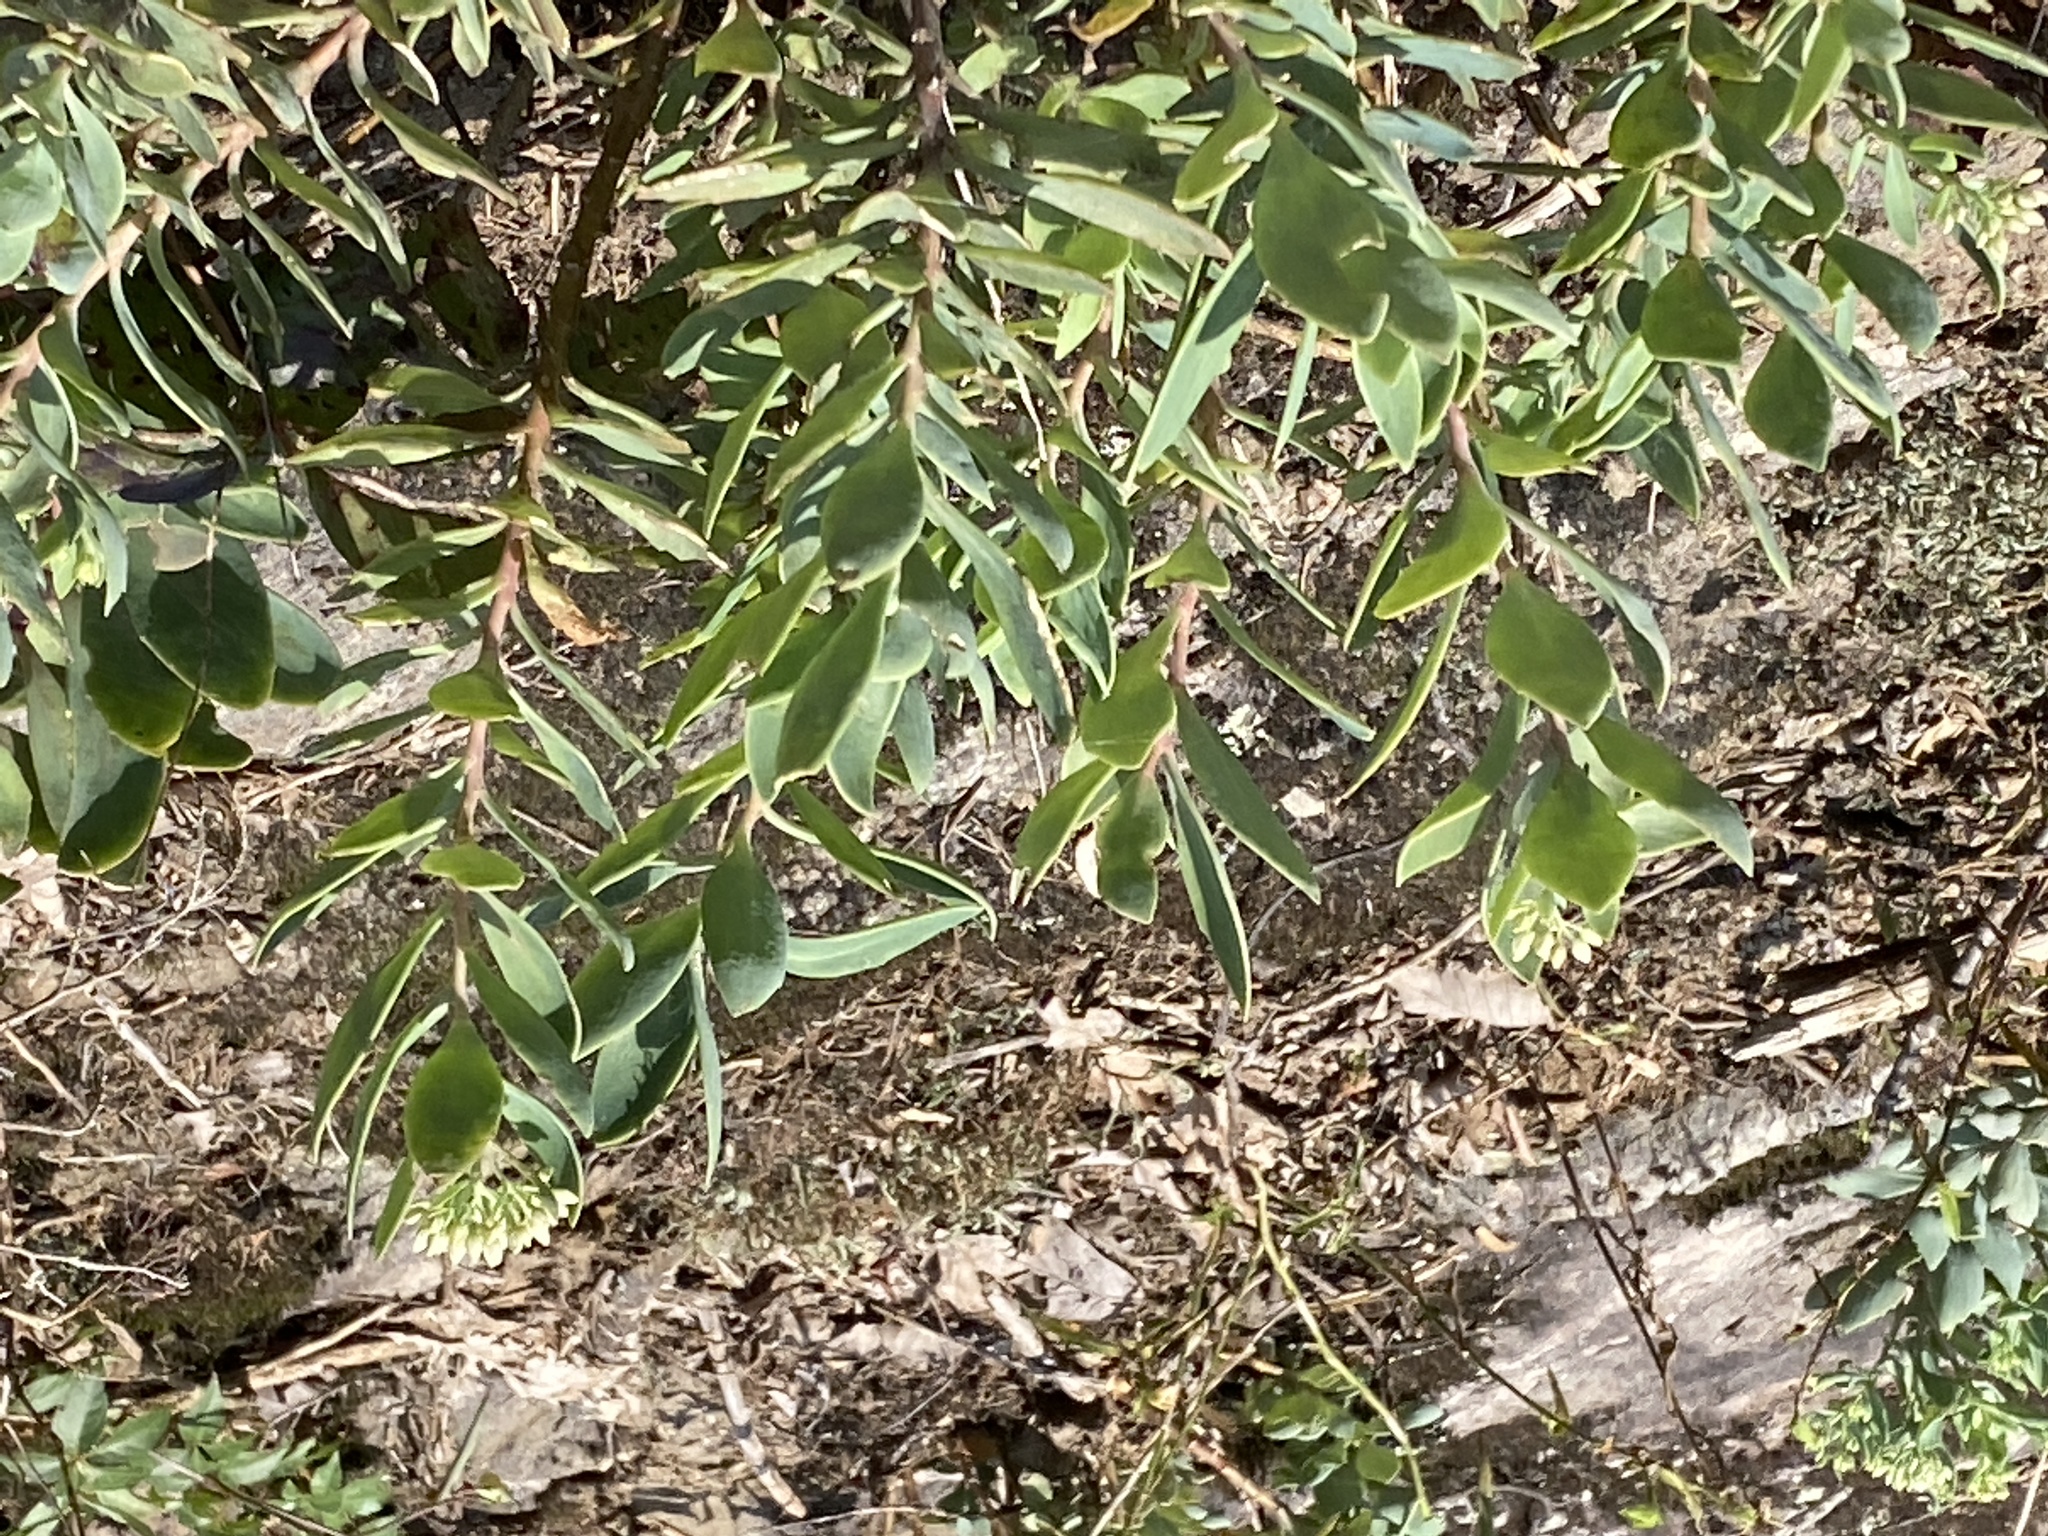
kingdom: Plantae
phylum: Tracheophyta
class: Magnoliopsida
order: Saxifragales
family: Crassulaceae
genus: Hylotelephium
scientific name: Hylotelephium telephioides
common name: Allegheny stonecrop
